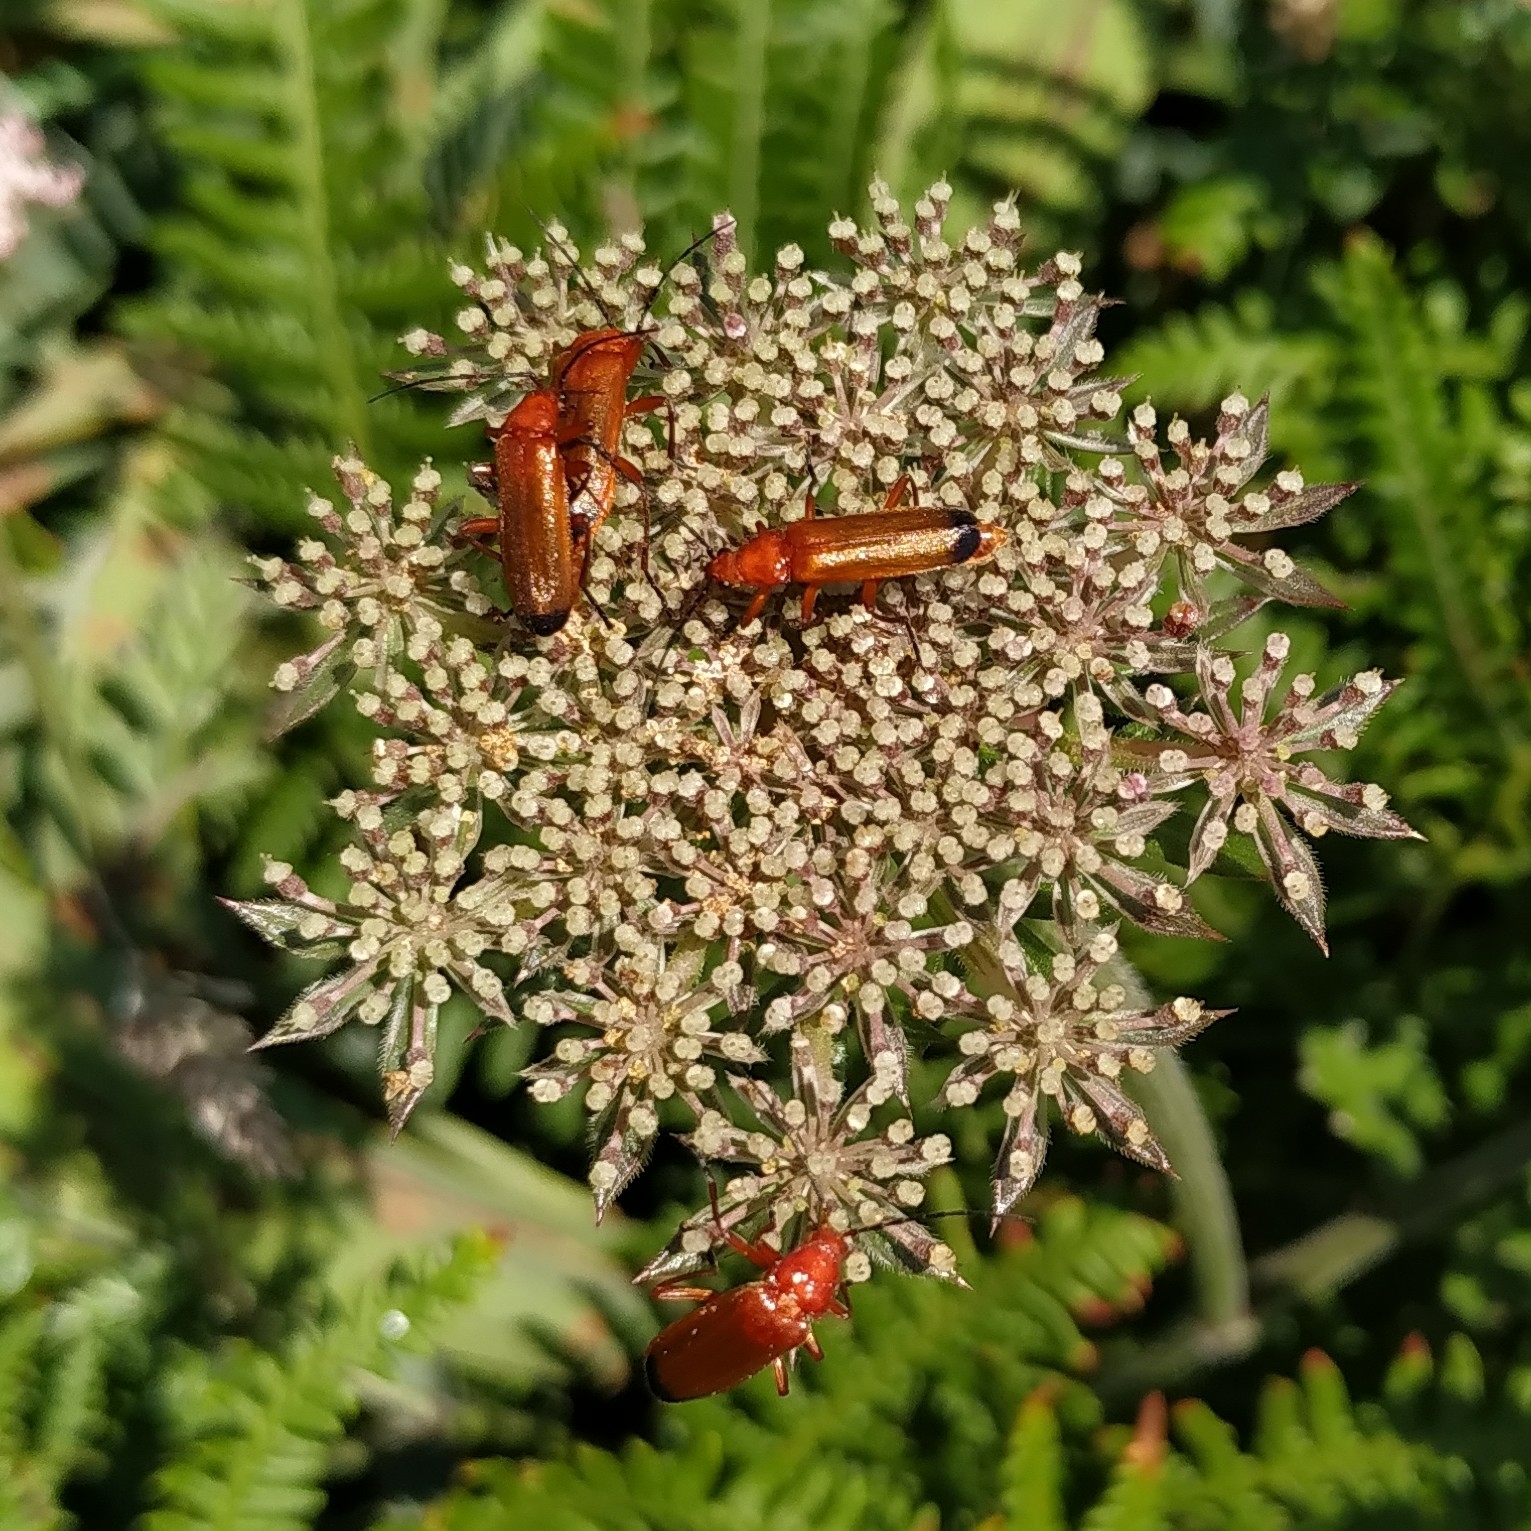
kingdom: Animalia
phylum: Arthropoda
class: Insecta
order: Coleoptera
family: Cantharidae
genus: Rhagonycha
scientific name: Rhagonycha fulva
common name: Common red soldier beetle
